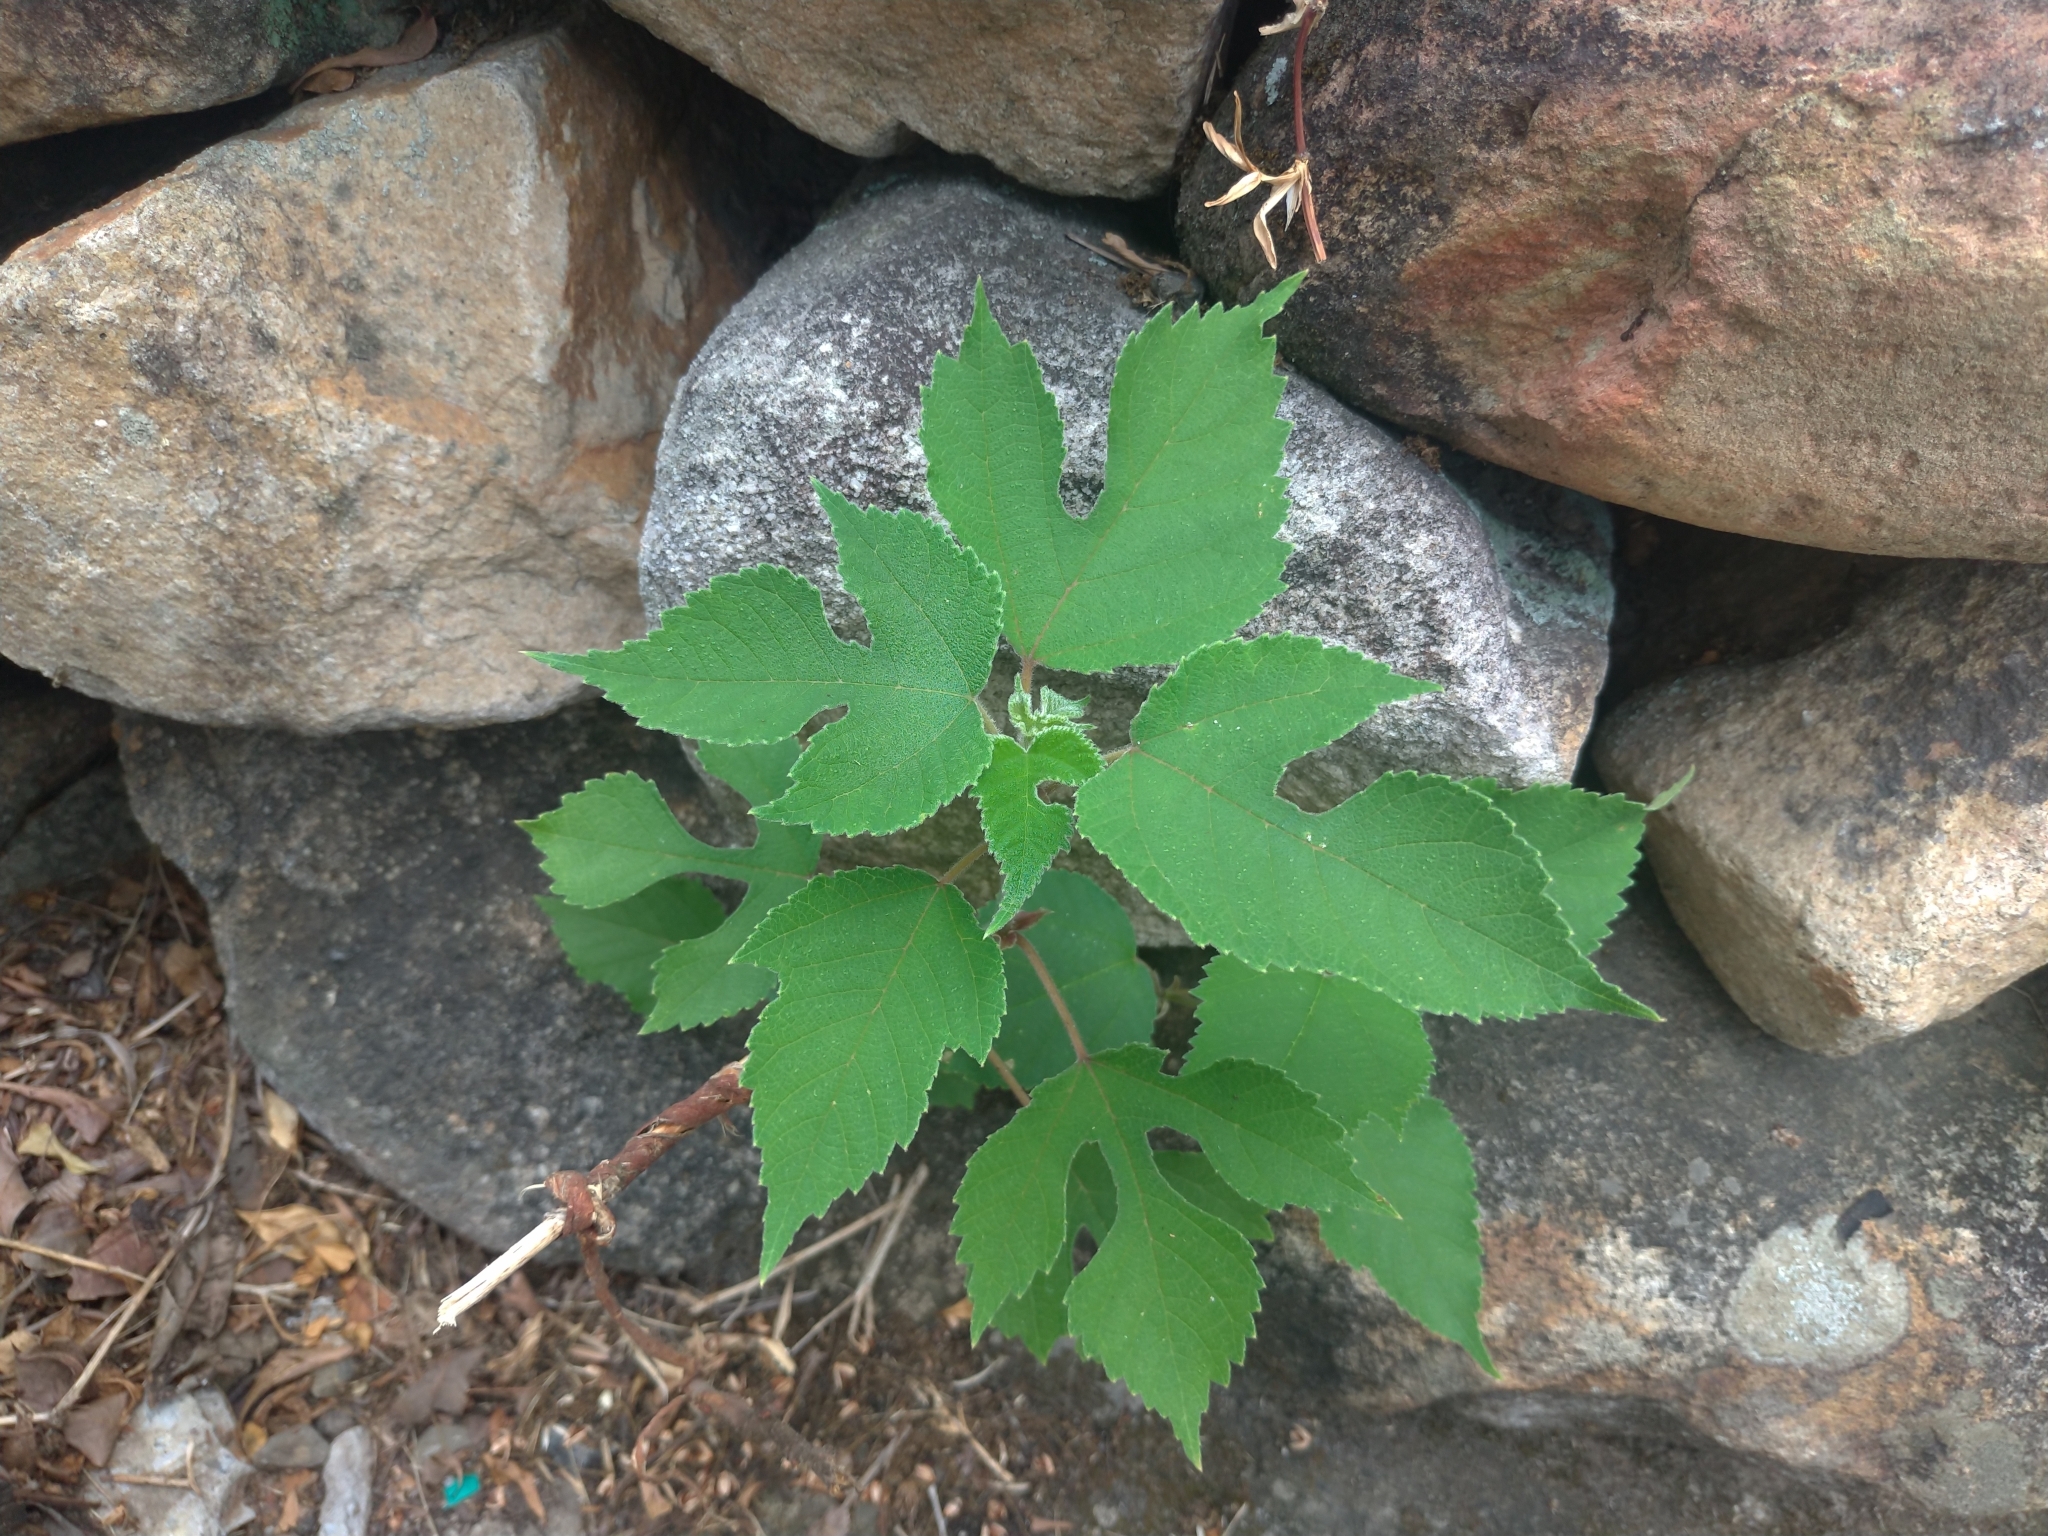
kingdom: Plantae
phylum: Tracheophyta
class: Magnoliopsida
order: Rosales
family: Moraceae
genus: Broussonetia
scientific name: Broussonetia papyrifera
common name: Paper mulberry
